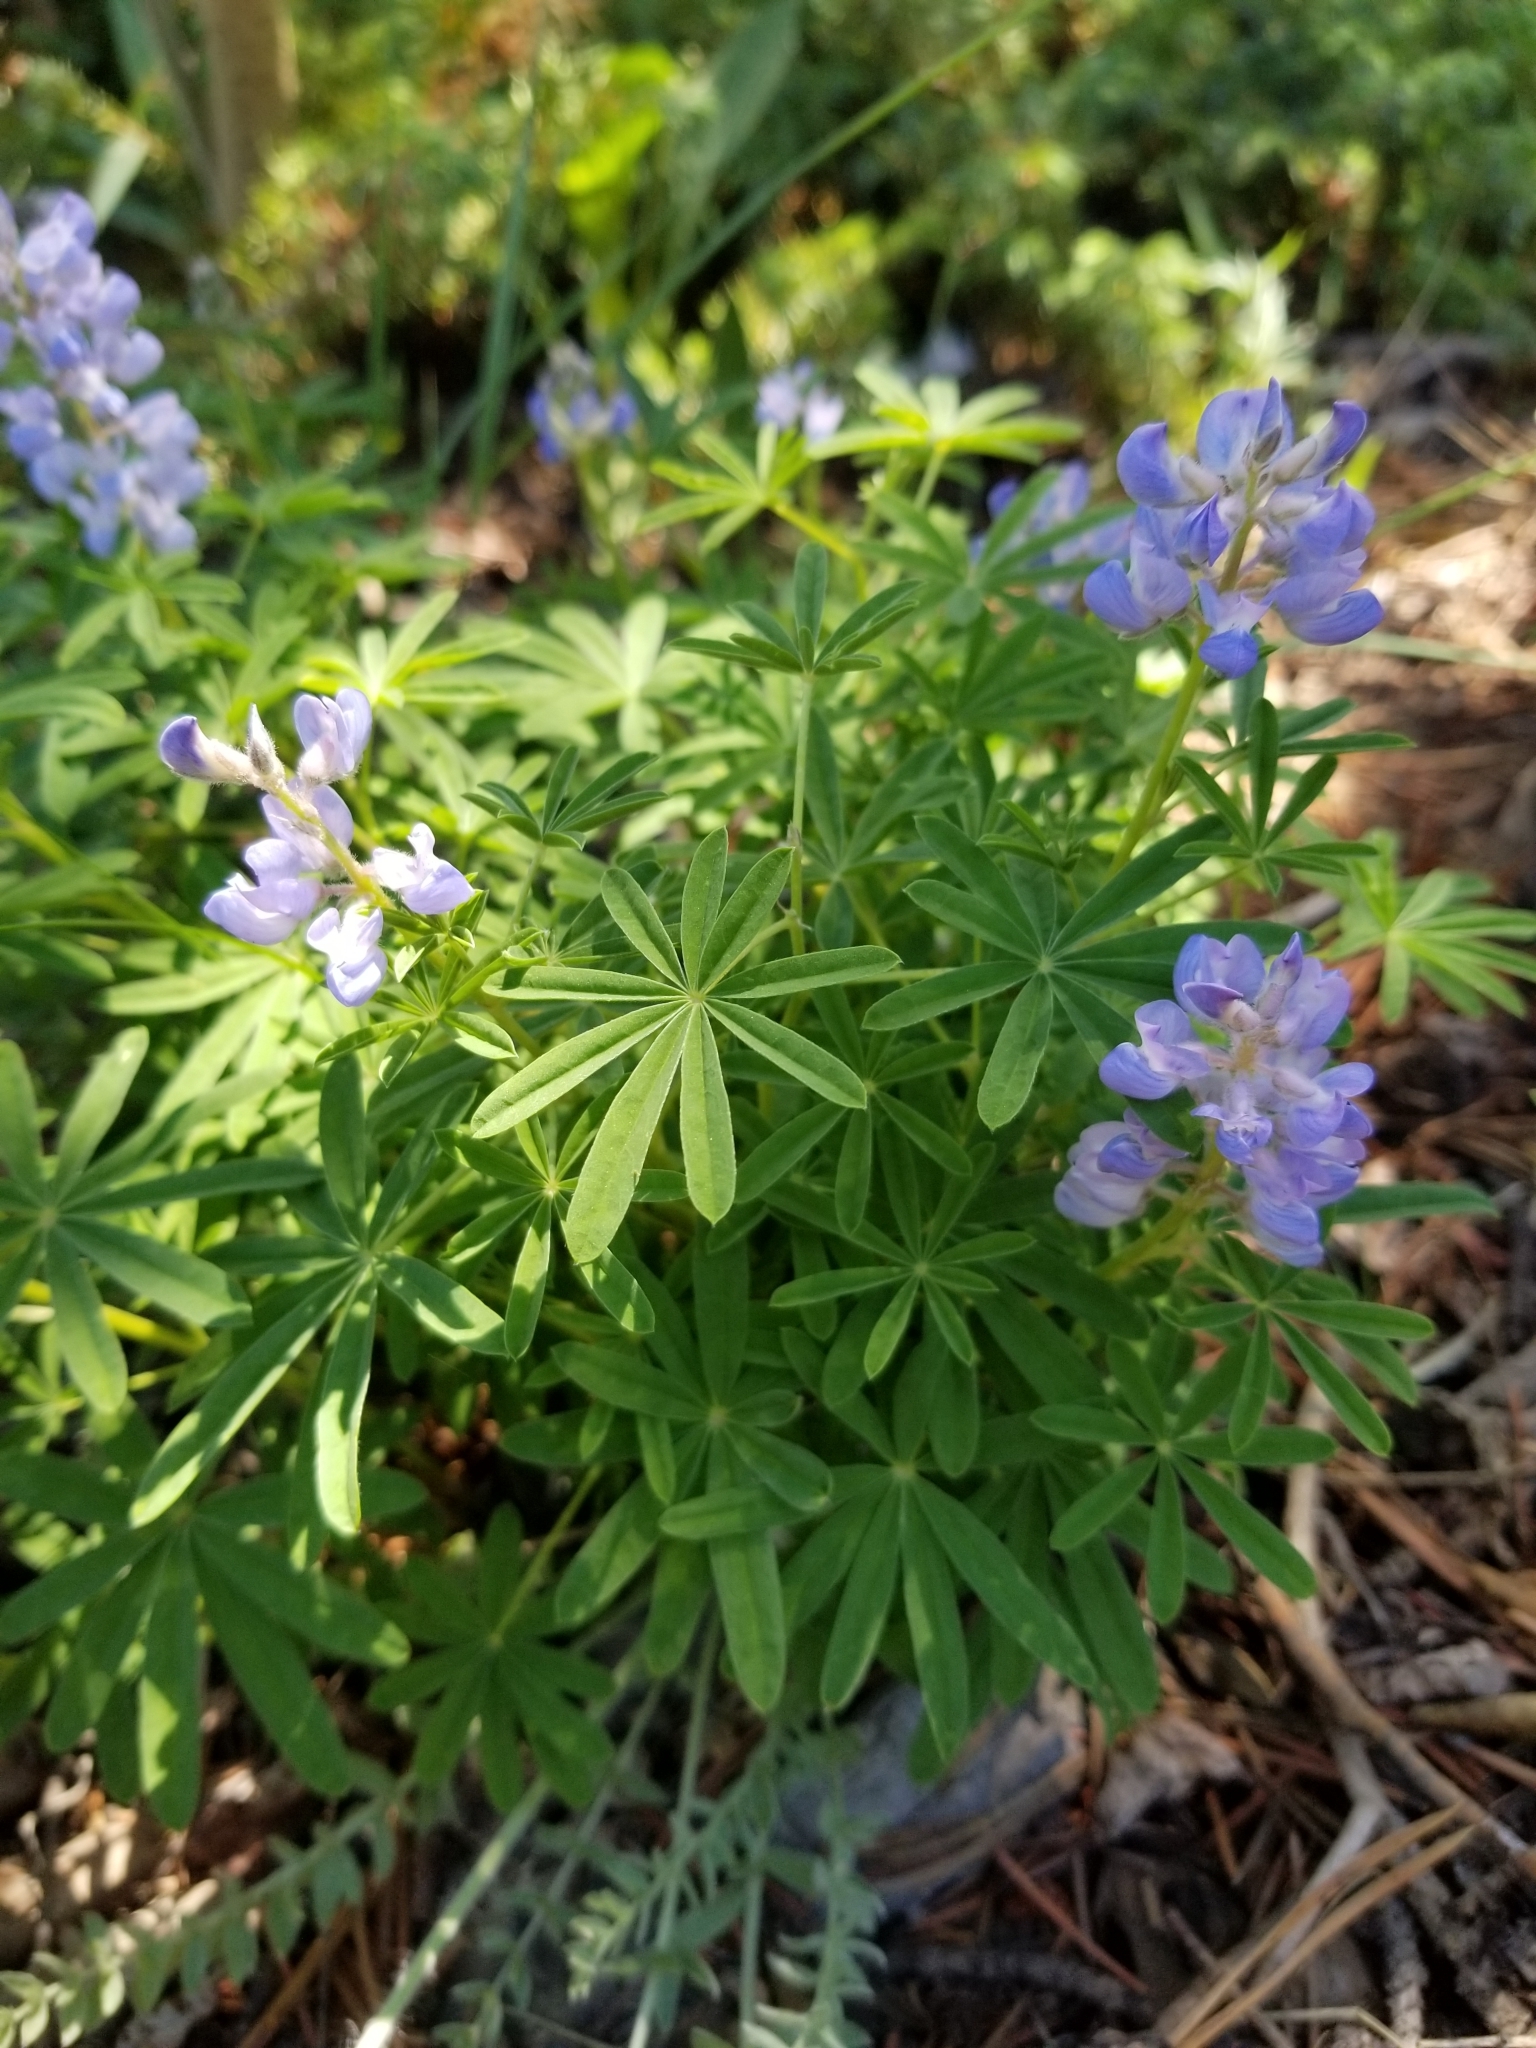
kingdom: Plantae
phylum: Tracheophyta
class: Magnoliopsida
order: Fabales
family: Fabaceae
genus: Lupinus
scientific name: Lupinus argenteus
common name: Silvery lupine
